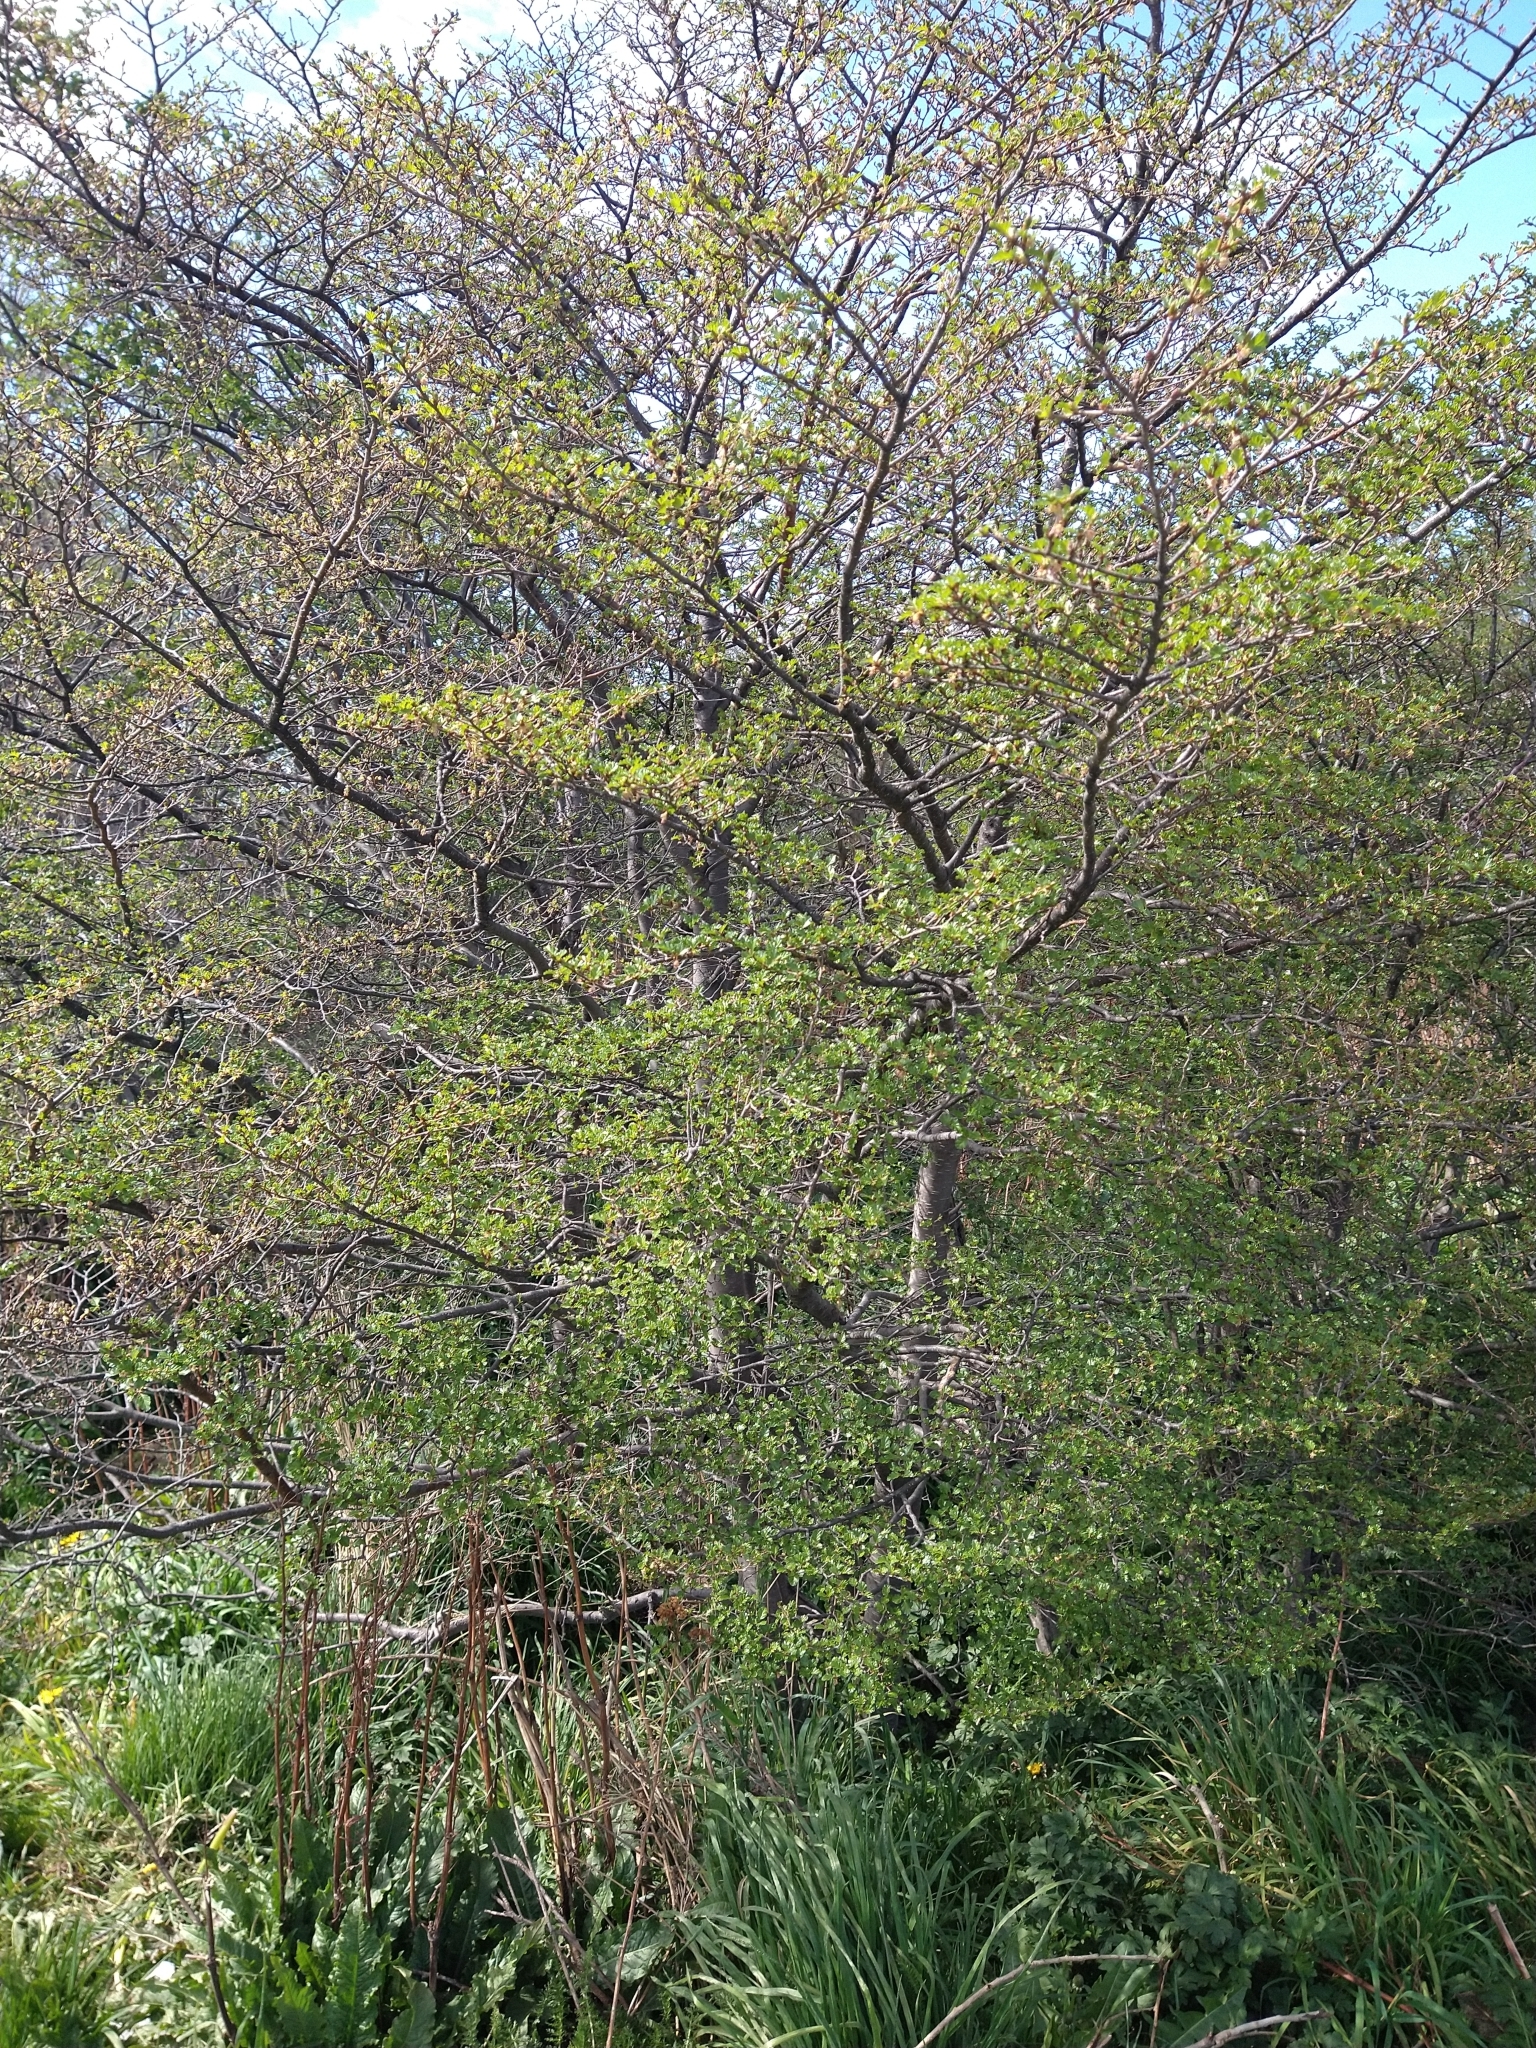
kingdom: Plantae
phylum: Tracheophyta
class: Magnoliopsida
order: Fagales
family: Nothofagaceae
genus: Nothofagus
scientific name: Nothofagus antarctica
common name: Antarctic beech
